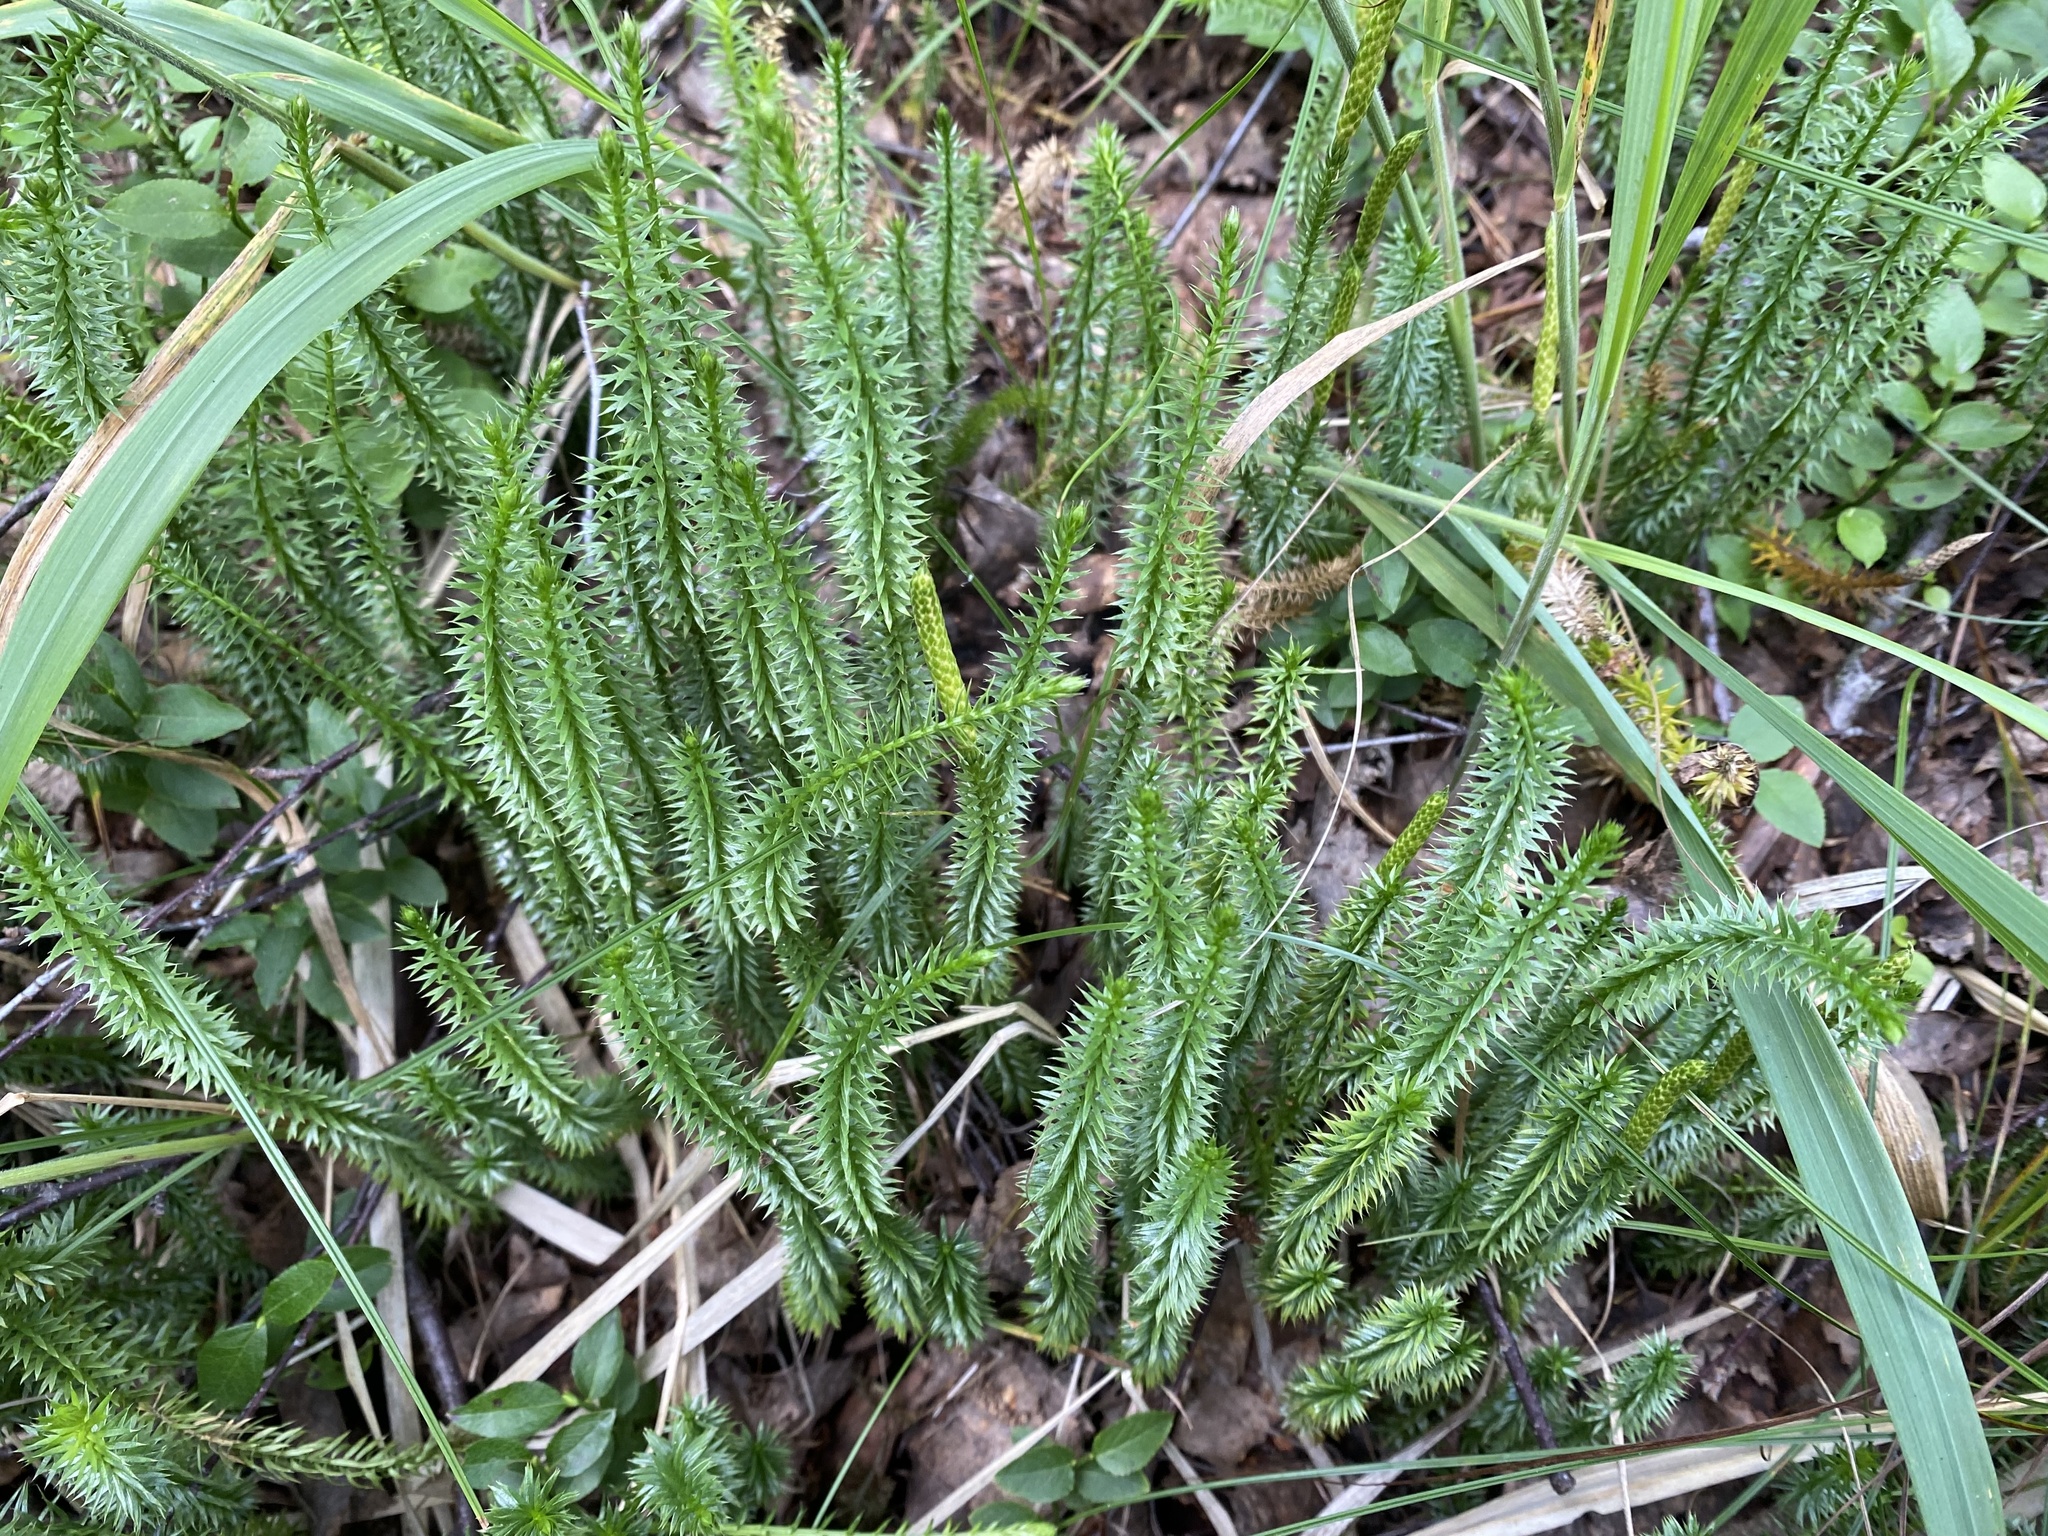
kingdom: Plantae
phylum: Tracheophyta
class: Lycopodiopsida
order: Lycopodiales
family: Lycopodiaceae
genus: Spinulum
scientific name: Spinulum annotinum
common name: Interrupted club-moss
